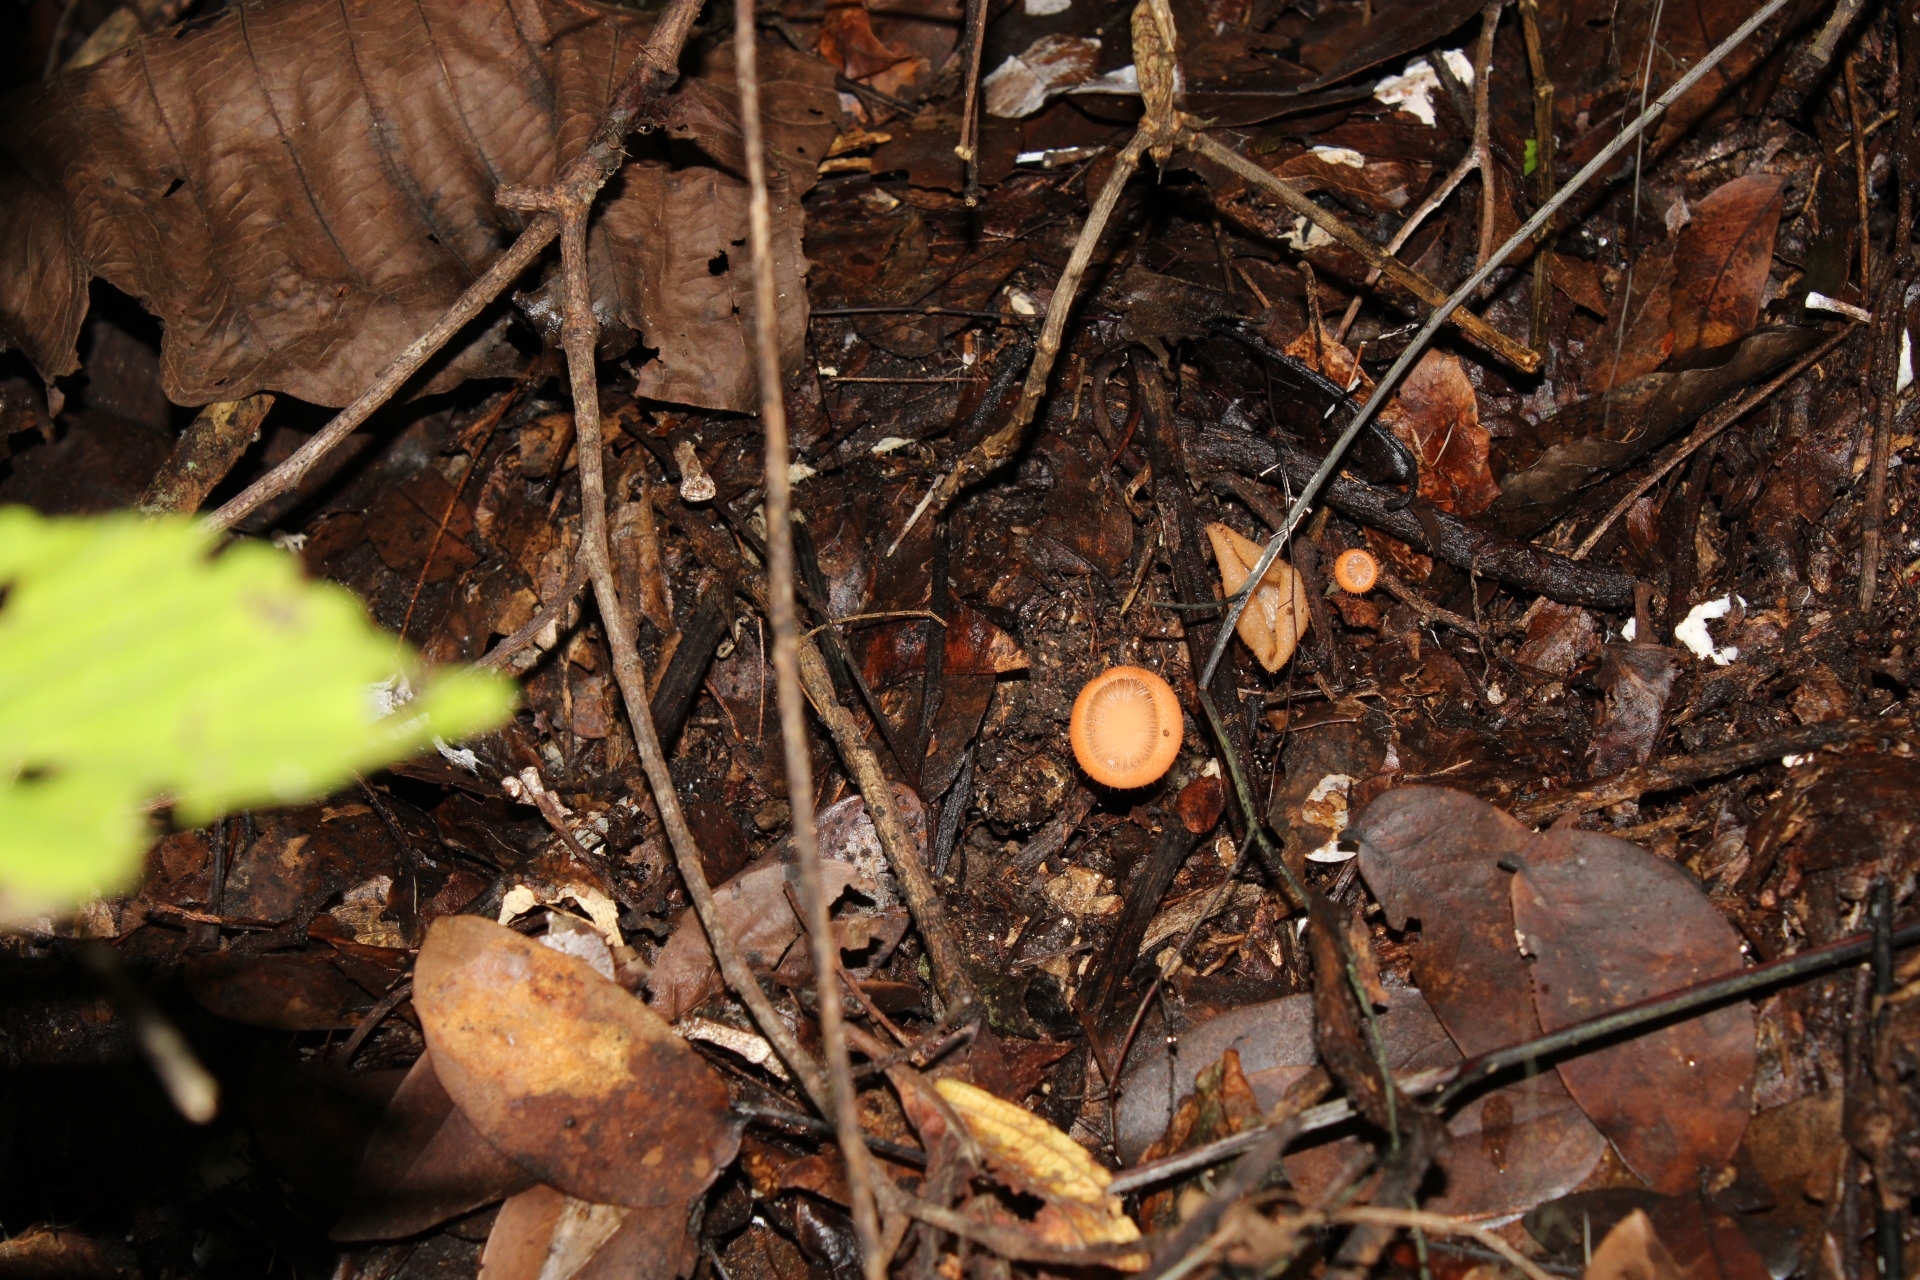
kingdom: Fungi
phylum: Ascomycota
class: Pezizomycetes
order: Pezizales
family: Sarcoscyphaceae
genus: Cookeina
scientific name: Cookeina tricholoma
